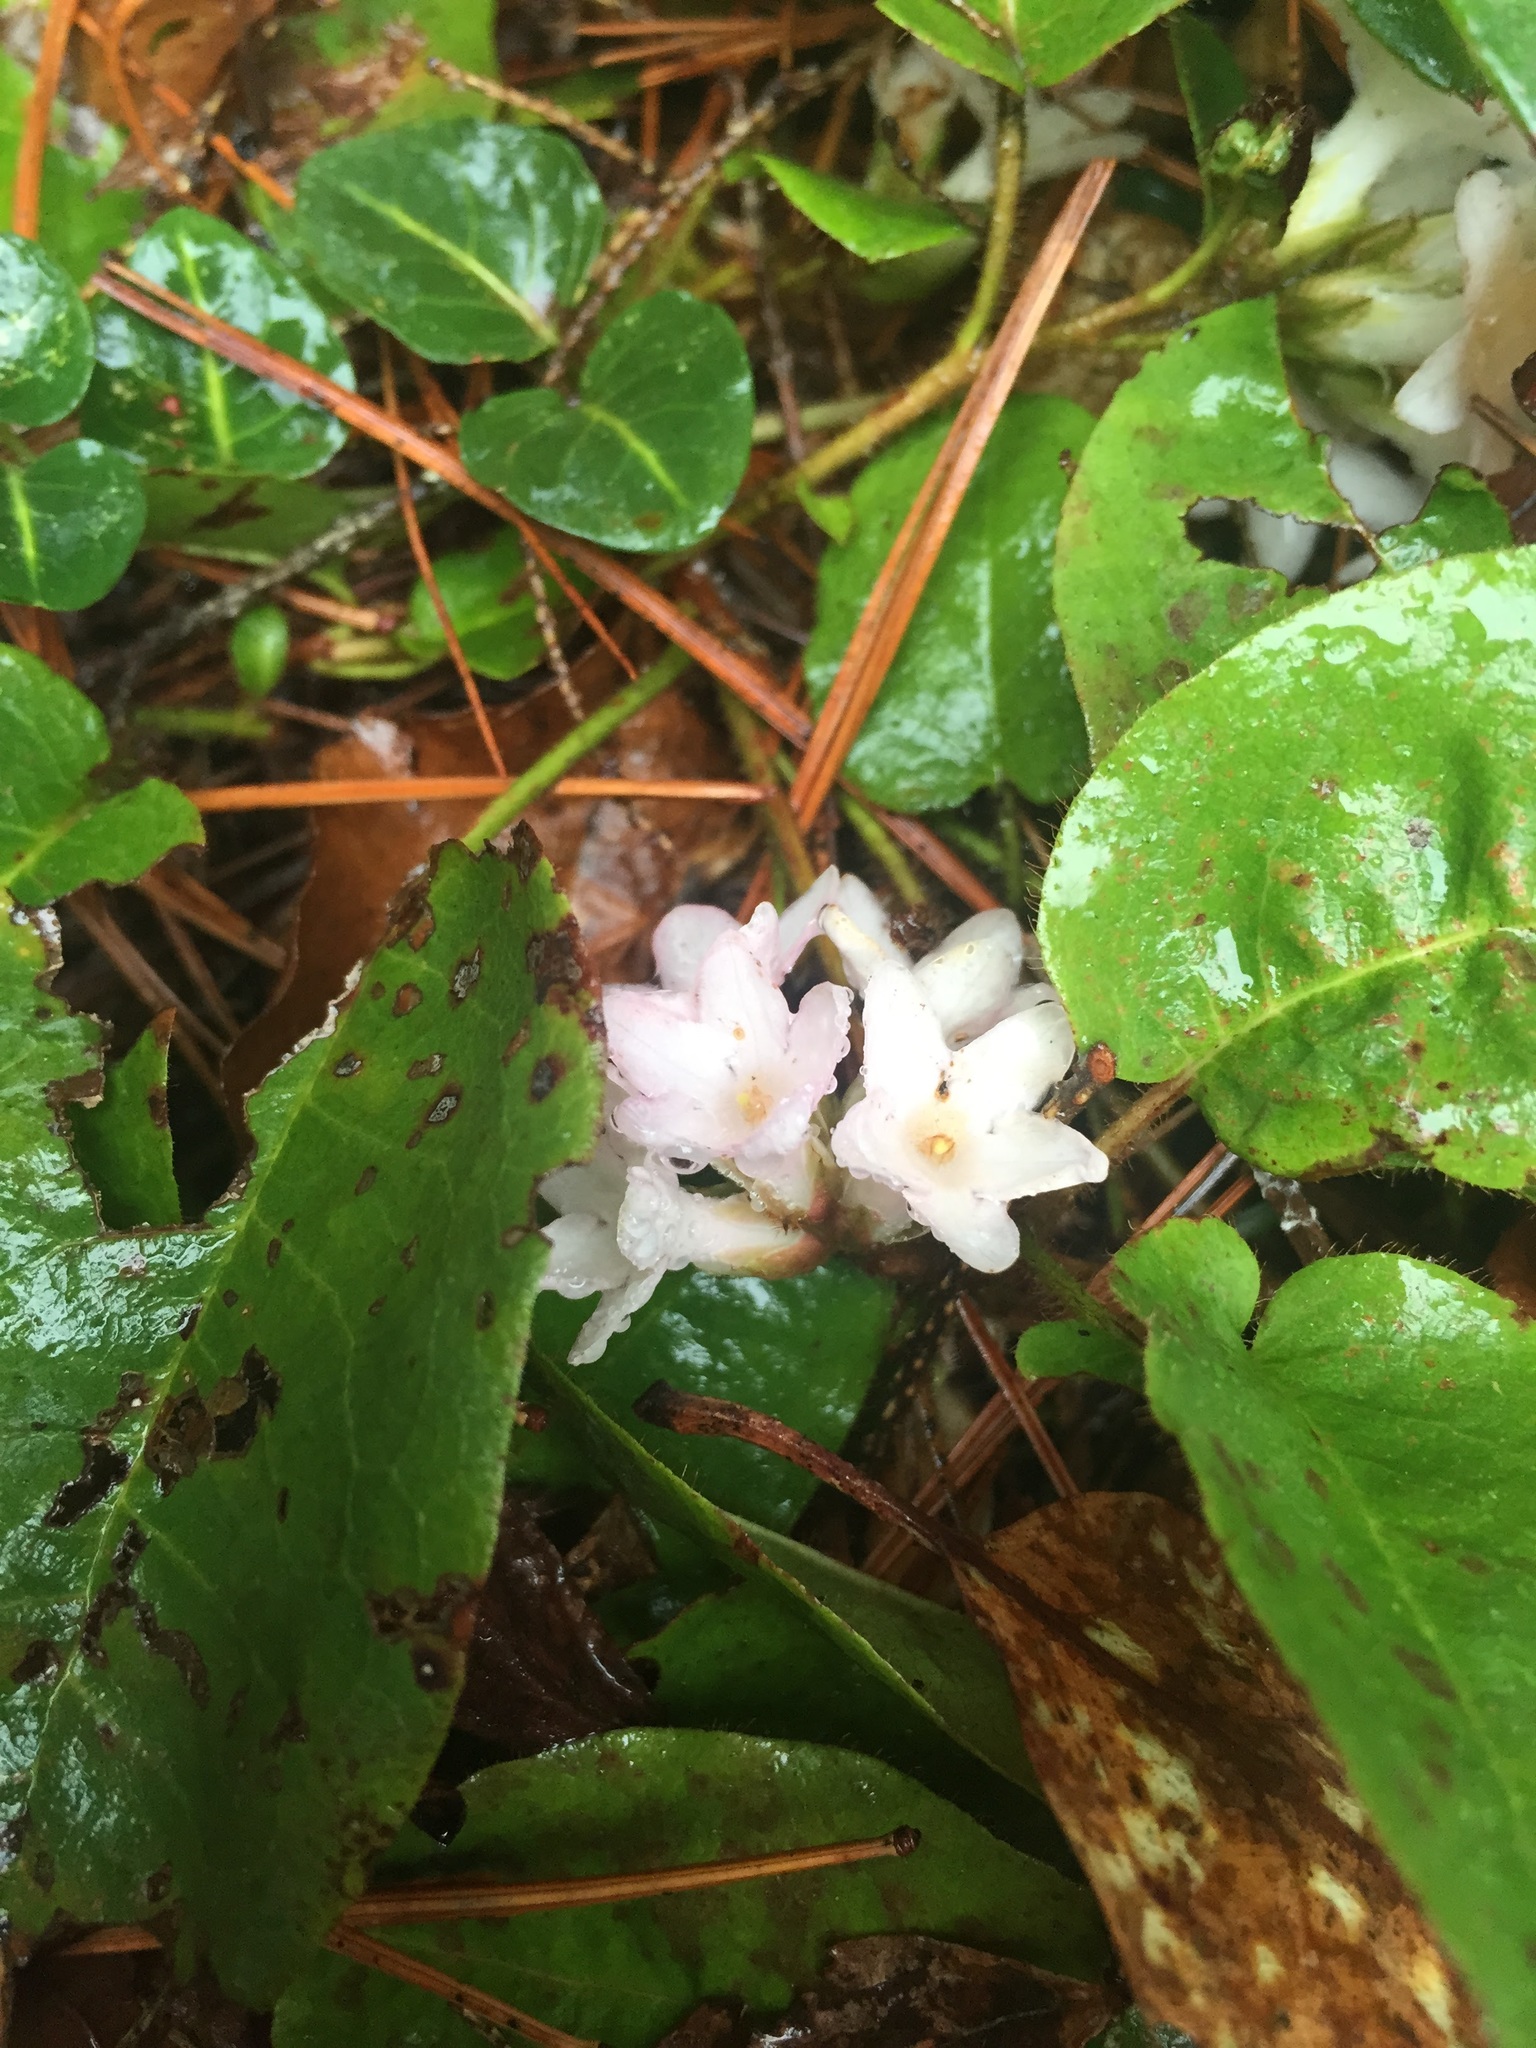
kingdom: Plantae
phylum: Tracheophyta
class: Magnoliopsida
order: Ericales
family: Ericaceae
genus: Epigaea
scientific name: Epigaea repens
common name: Gravelroot
